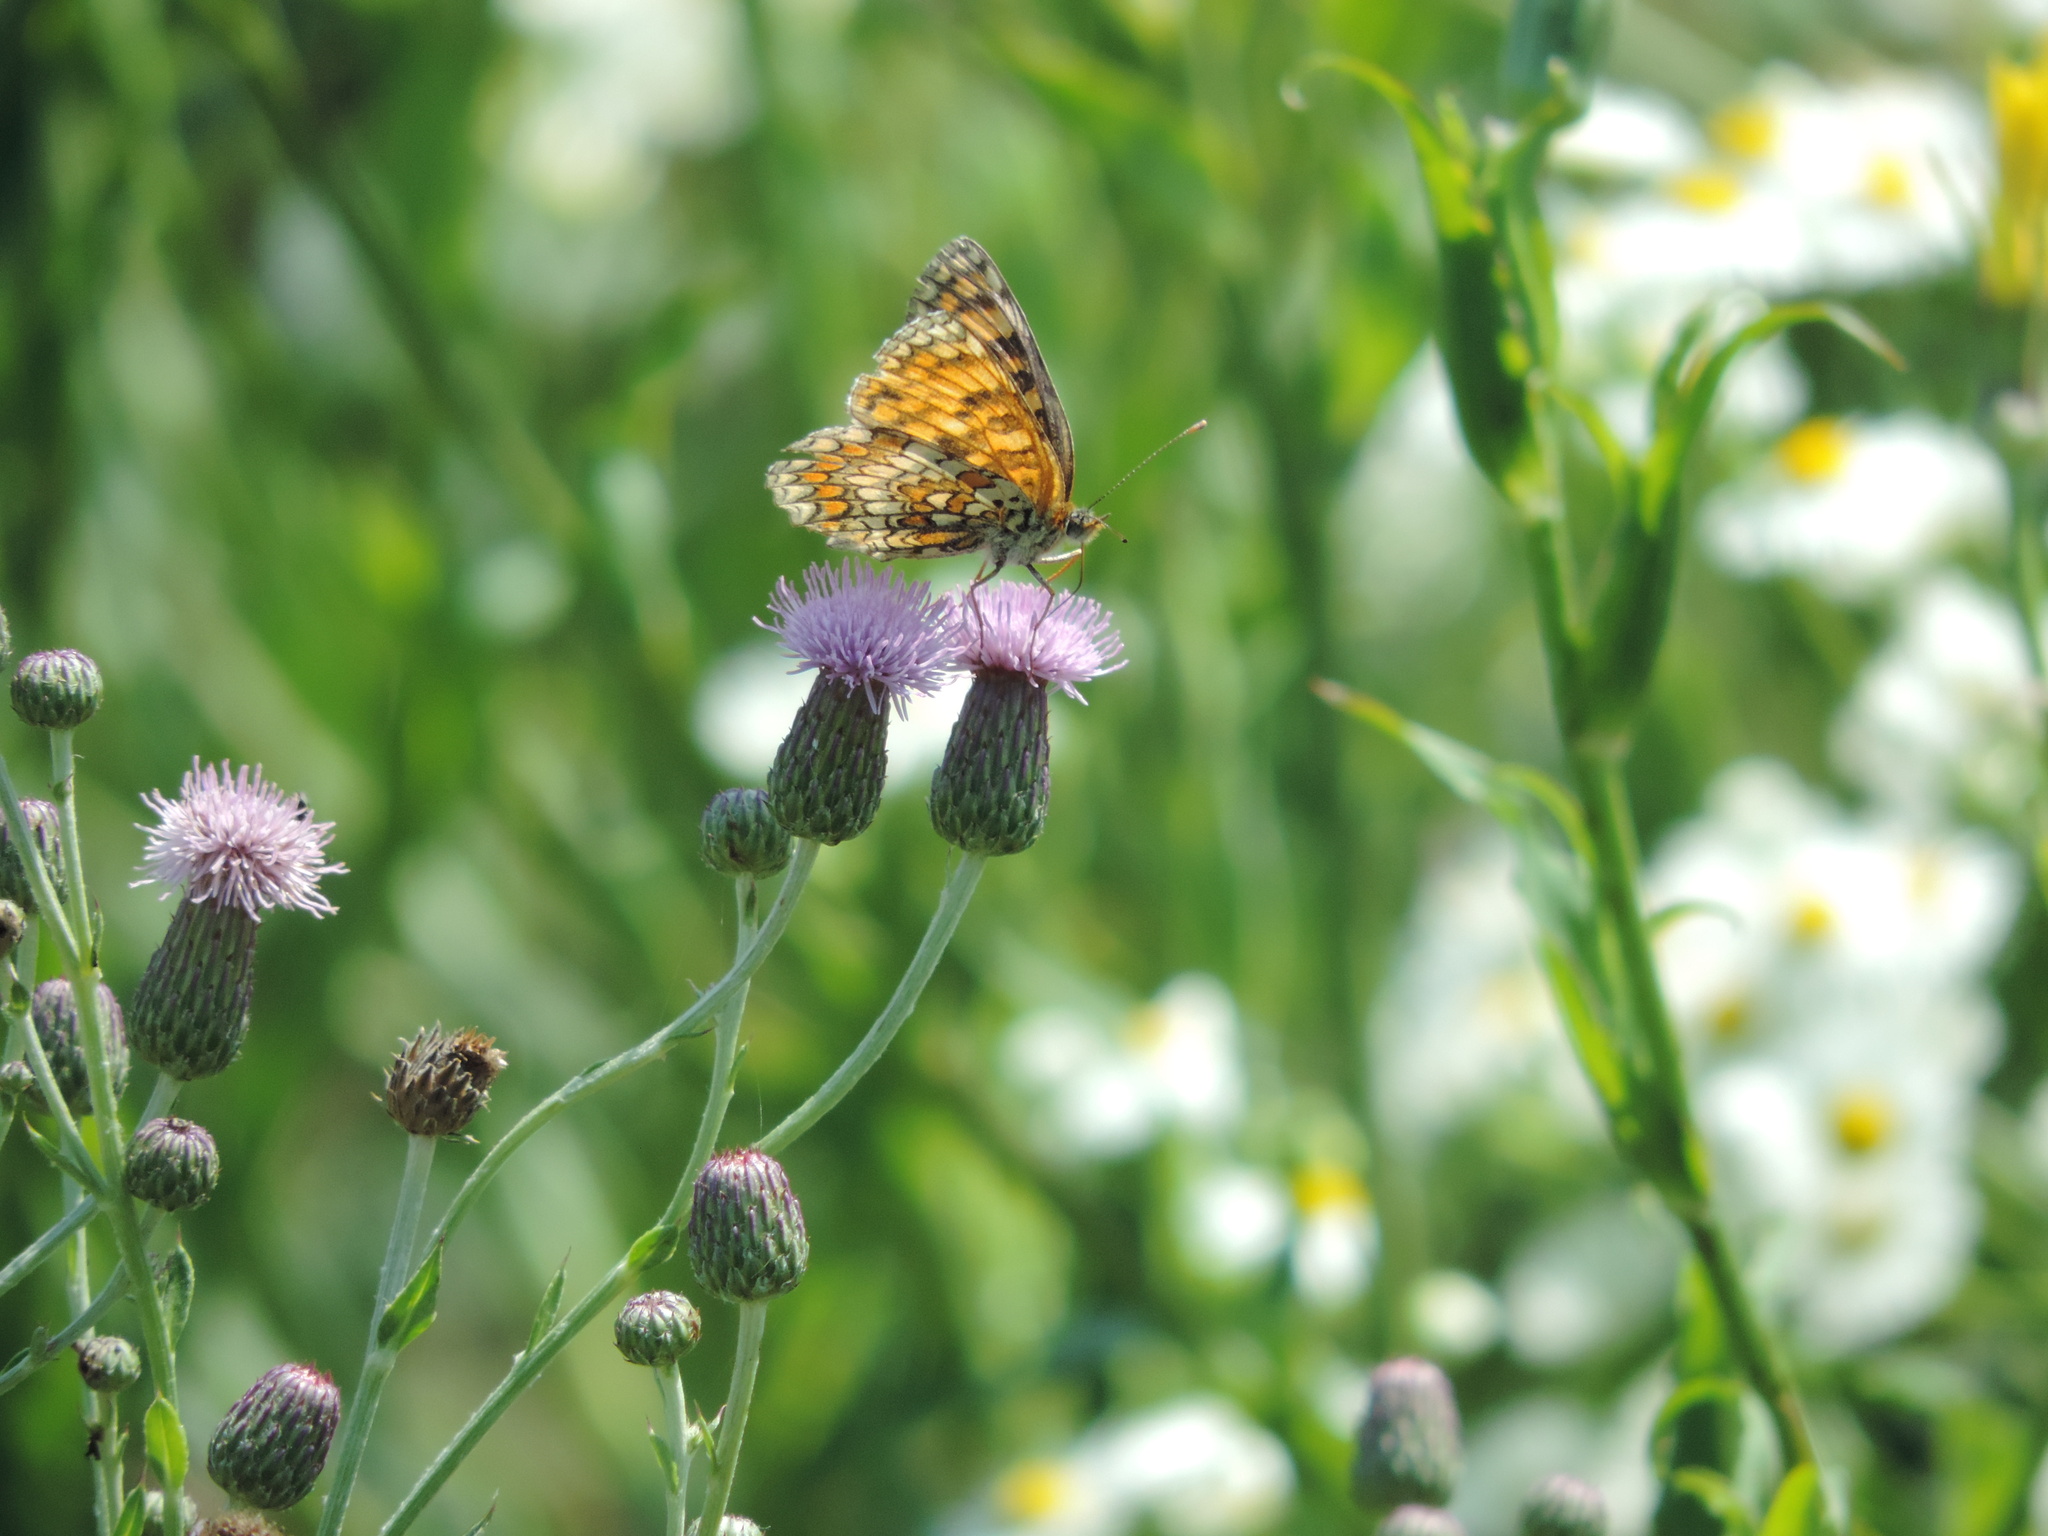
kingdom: Animalia
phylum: Arthropoda
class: Insecta
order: Lepidoptera
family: Nymphalidae
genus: Melitaea
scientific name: Melitaea phoebe
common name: Knapweed fritillary
